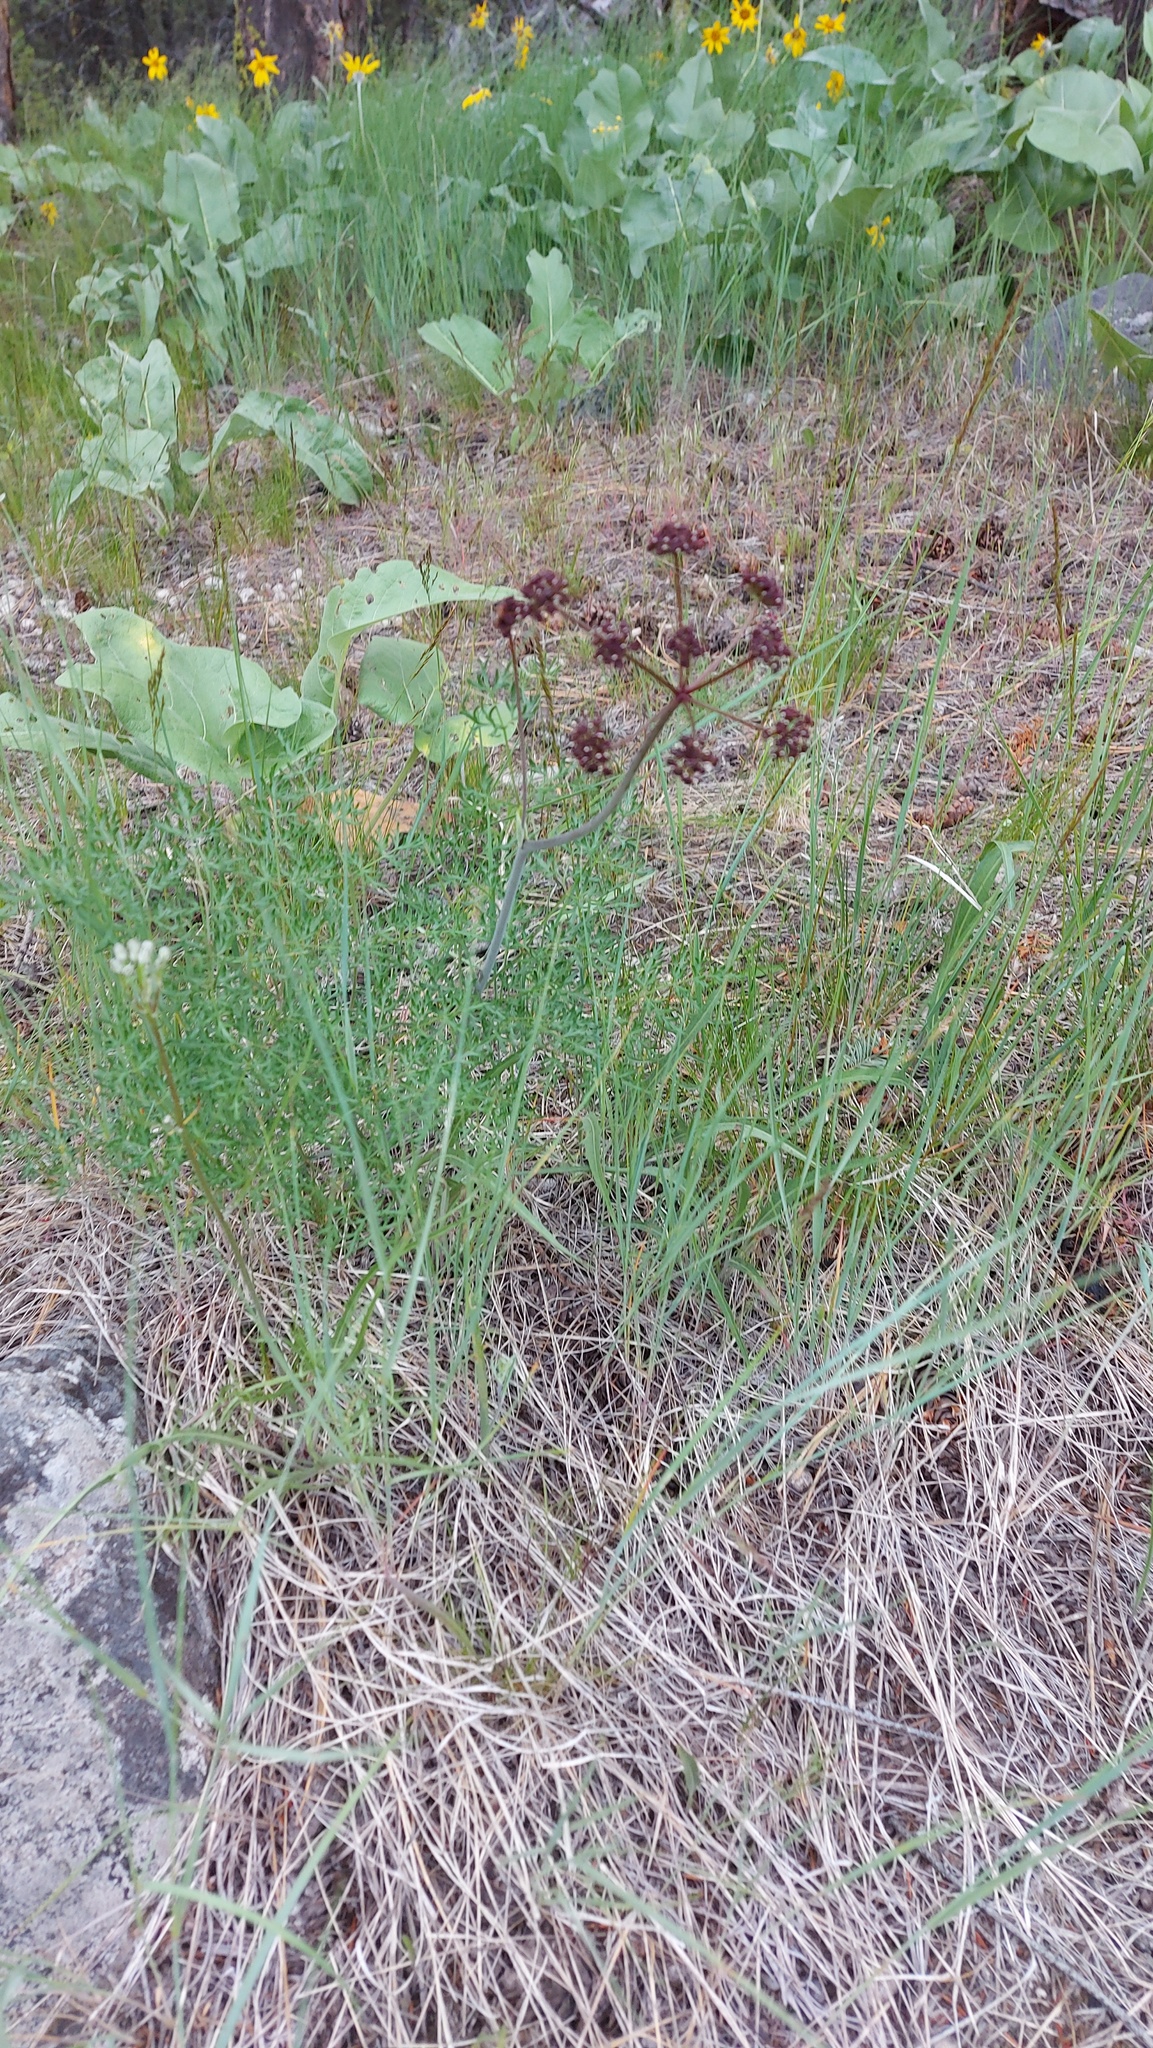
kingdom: Plantae
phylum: Tracheophyta
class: Magnoliopsida
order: Apiales
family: Apiaceae
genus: Lomatium
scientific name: Lomatium multifidum
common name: Carrot-leaved biscuitroot
